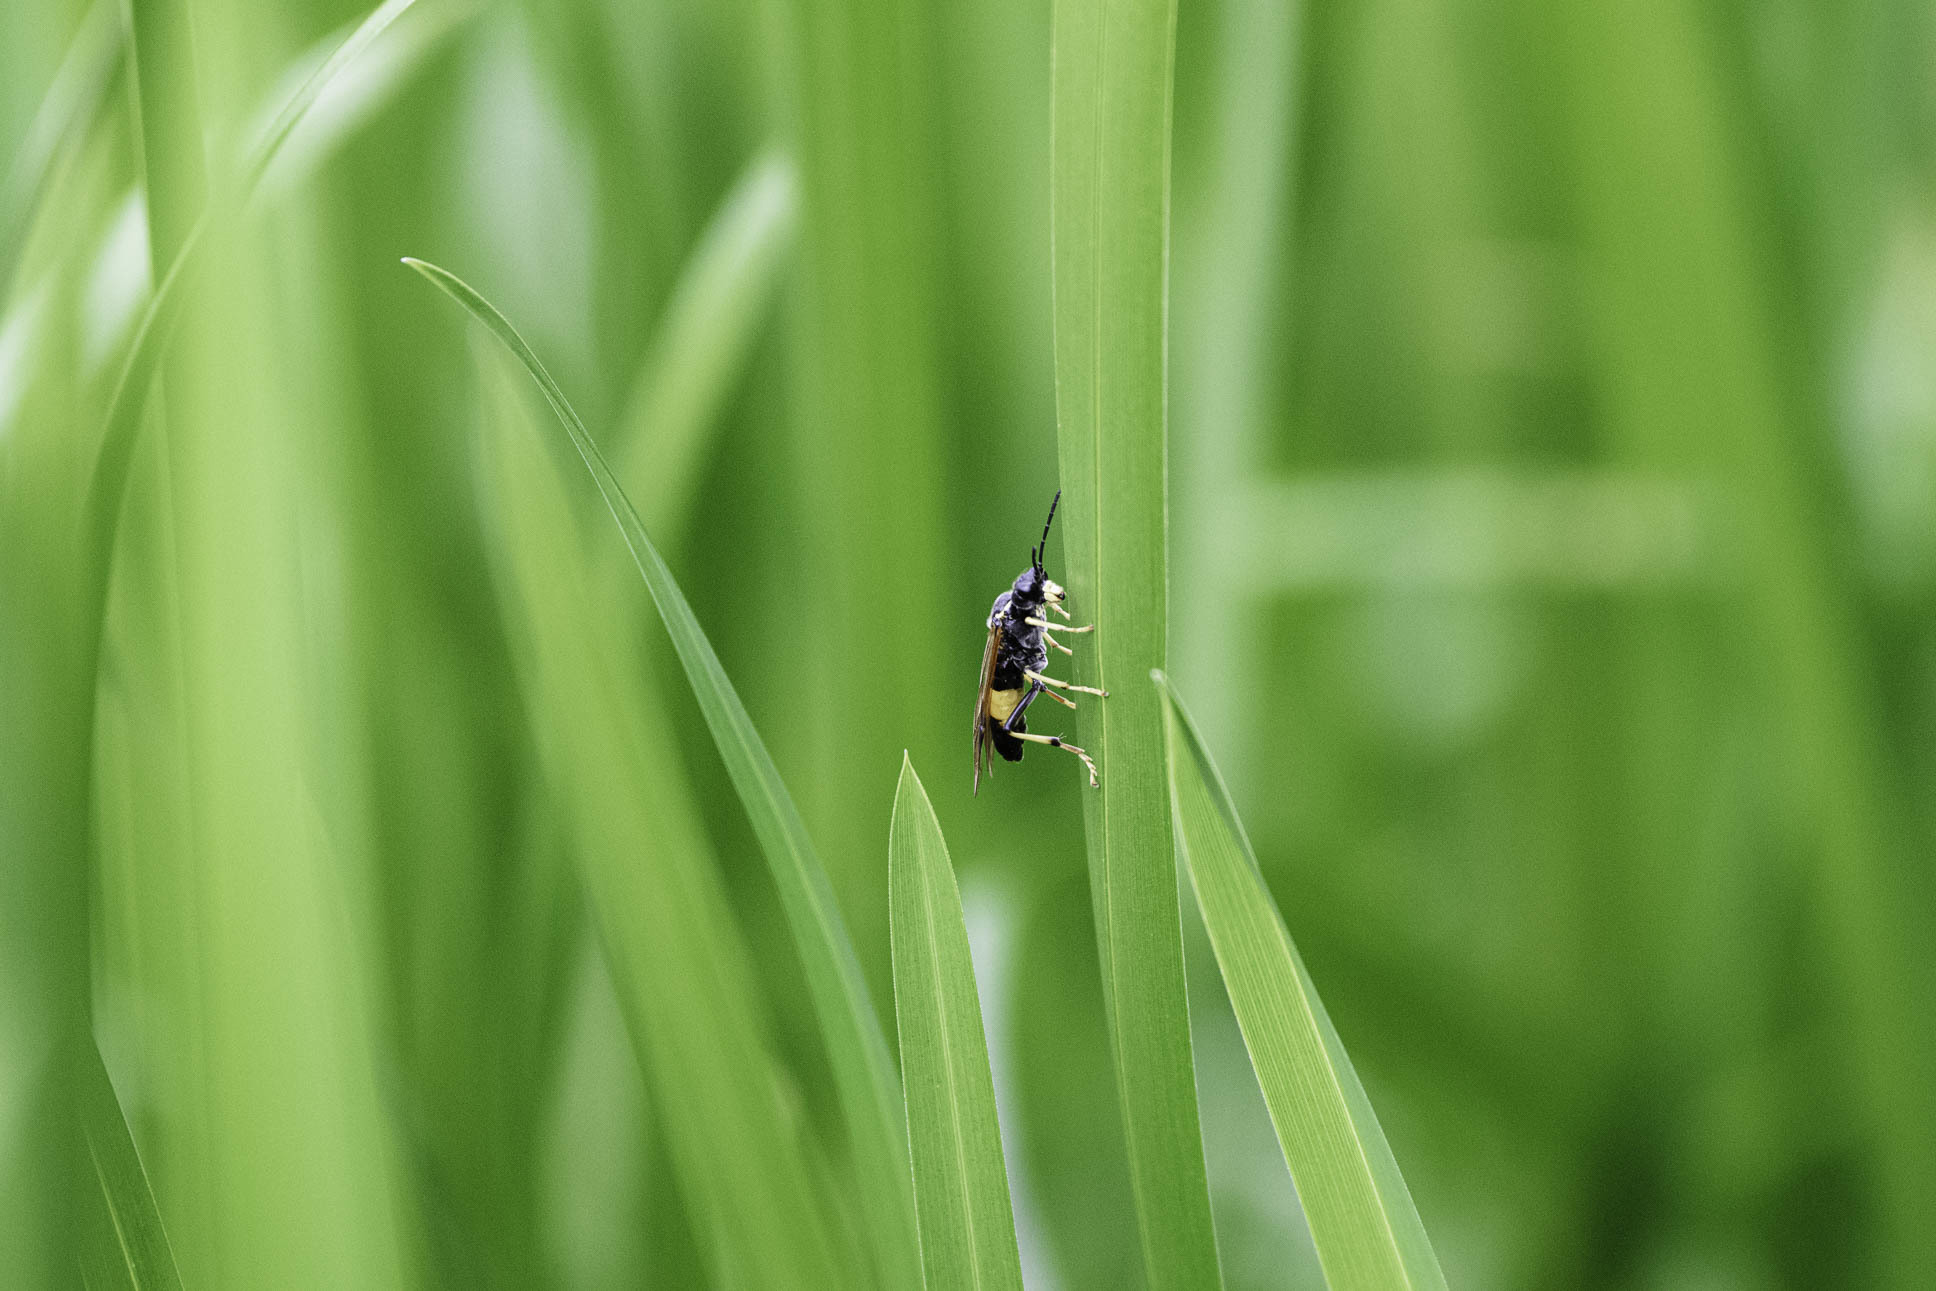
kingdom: Animalia
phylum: Arthropoda
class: Insecta
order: Hymenoptera
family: Tenthredinidae
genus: Tenthredo
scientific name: Tenthredo maculata
